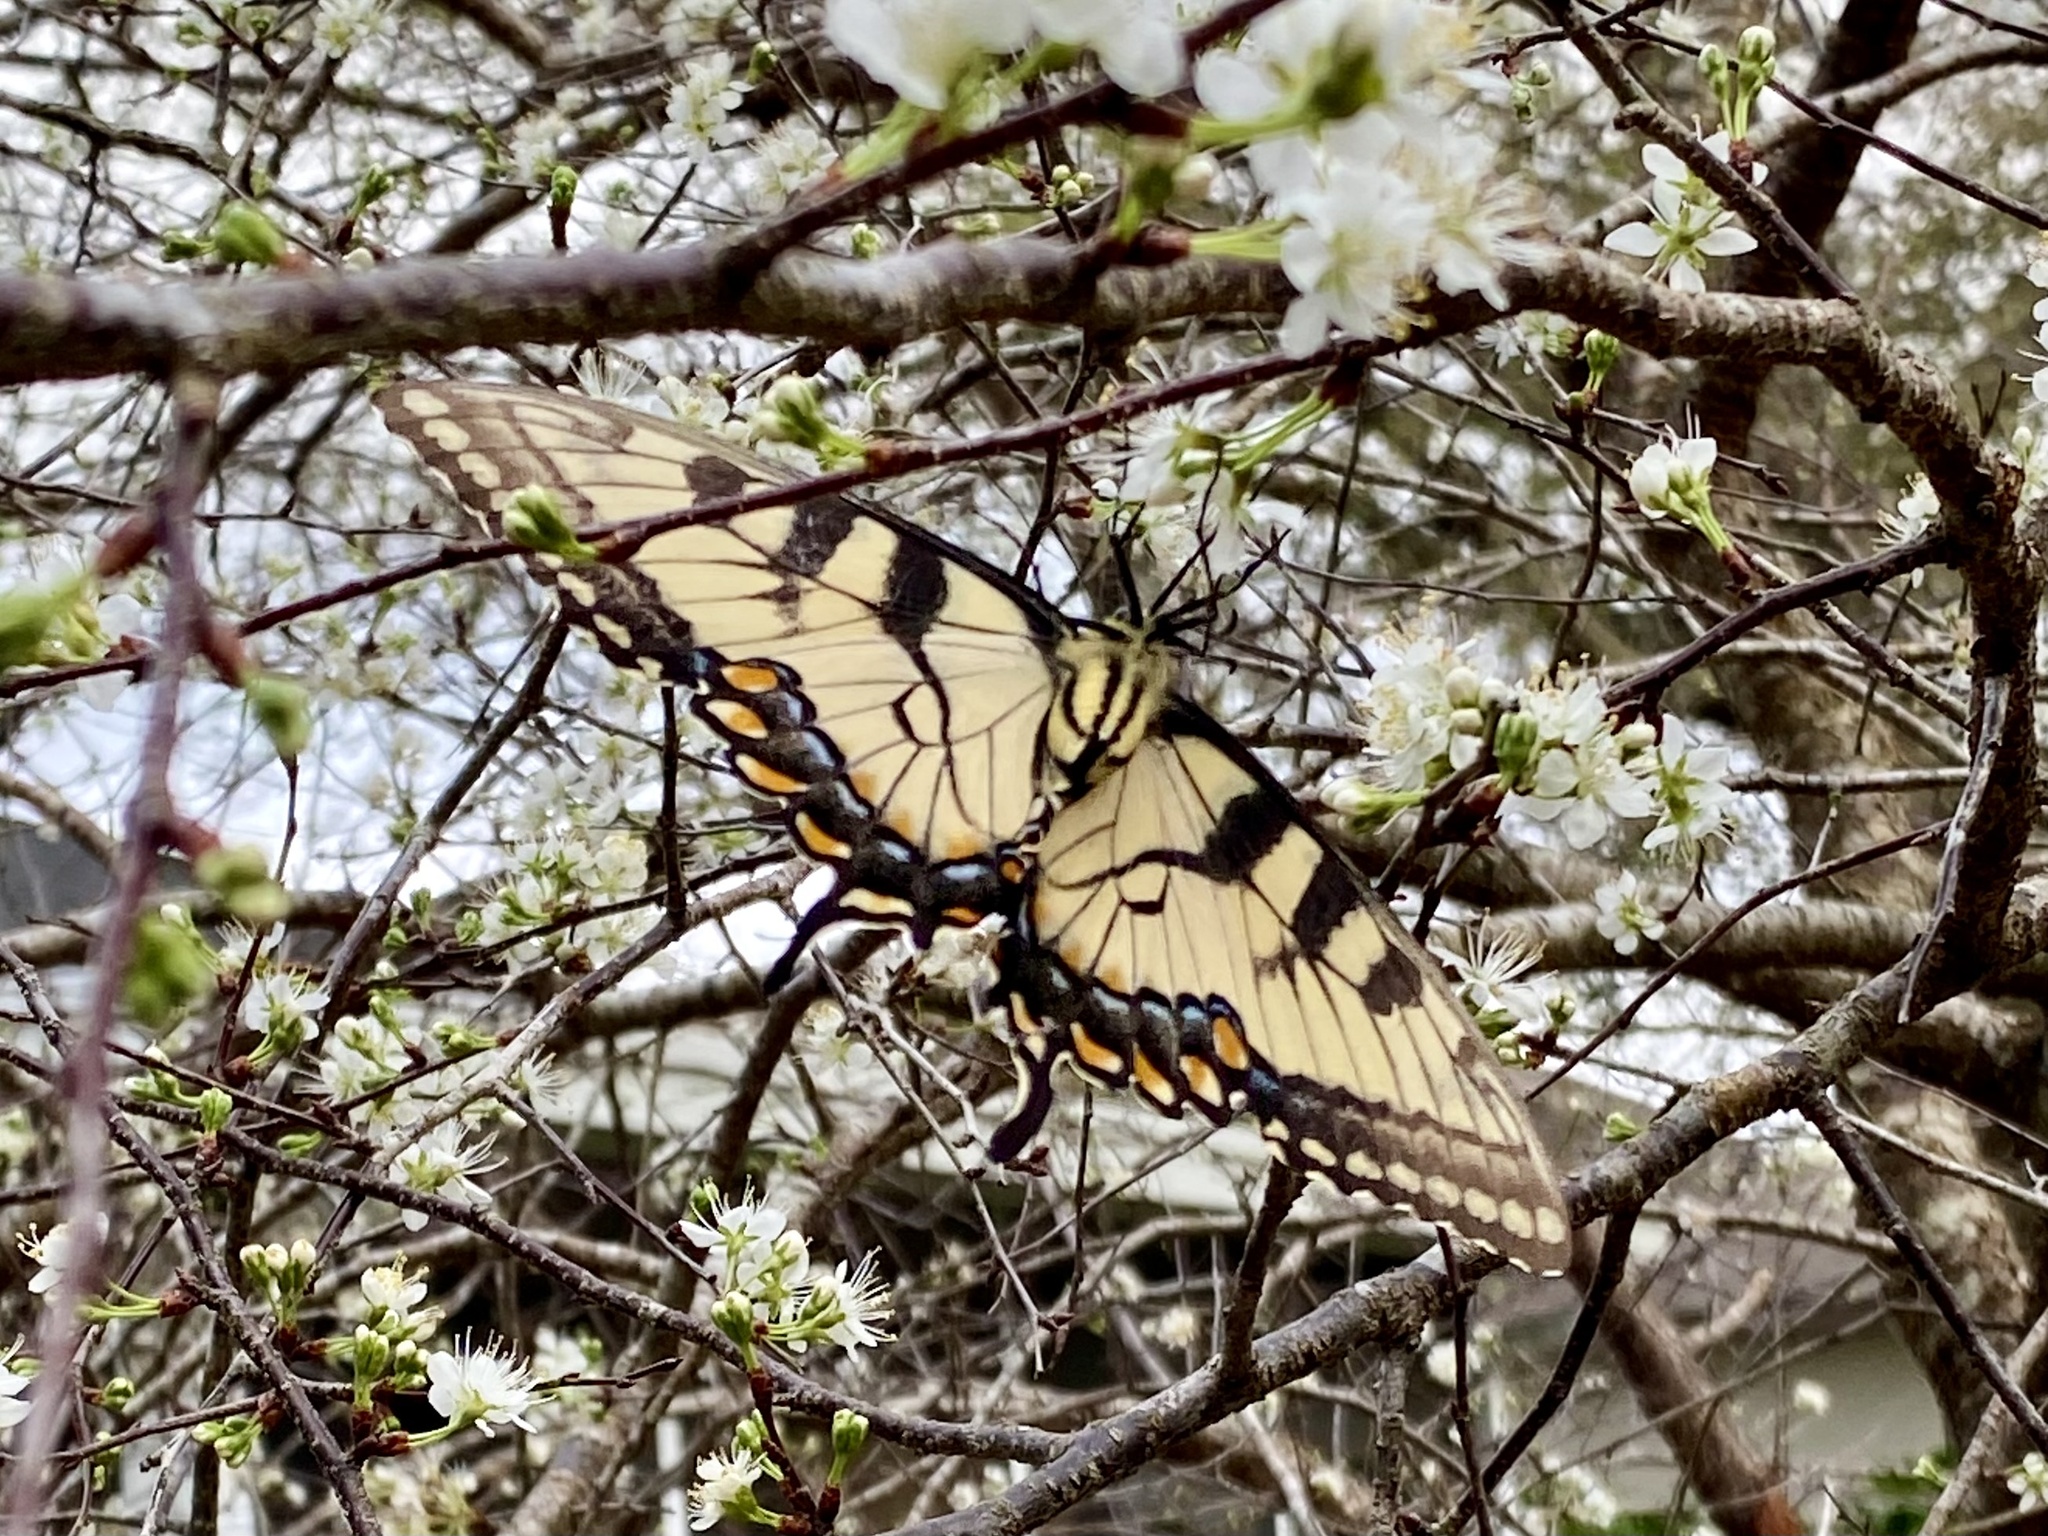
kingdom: Animalia
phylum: Arthropoda
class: Insecta
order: Lepidoptera
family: Papilionidae
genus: Papilio
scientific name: Papilio glaucus
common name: Tiger swallowtail
